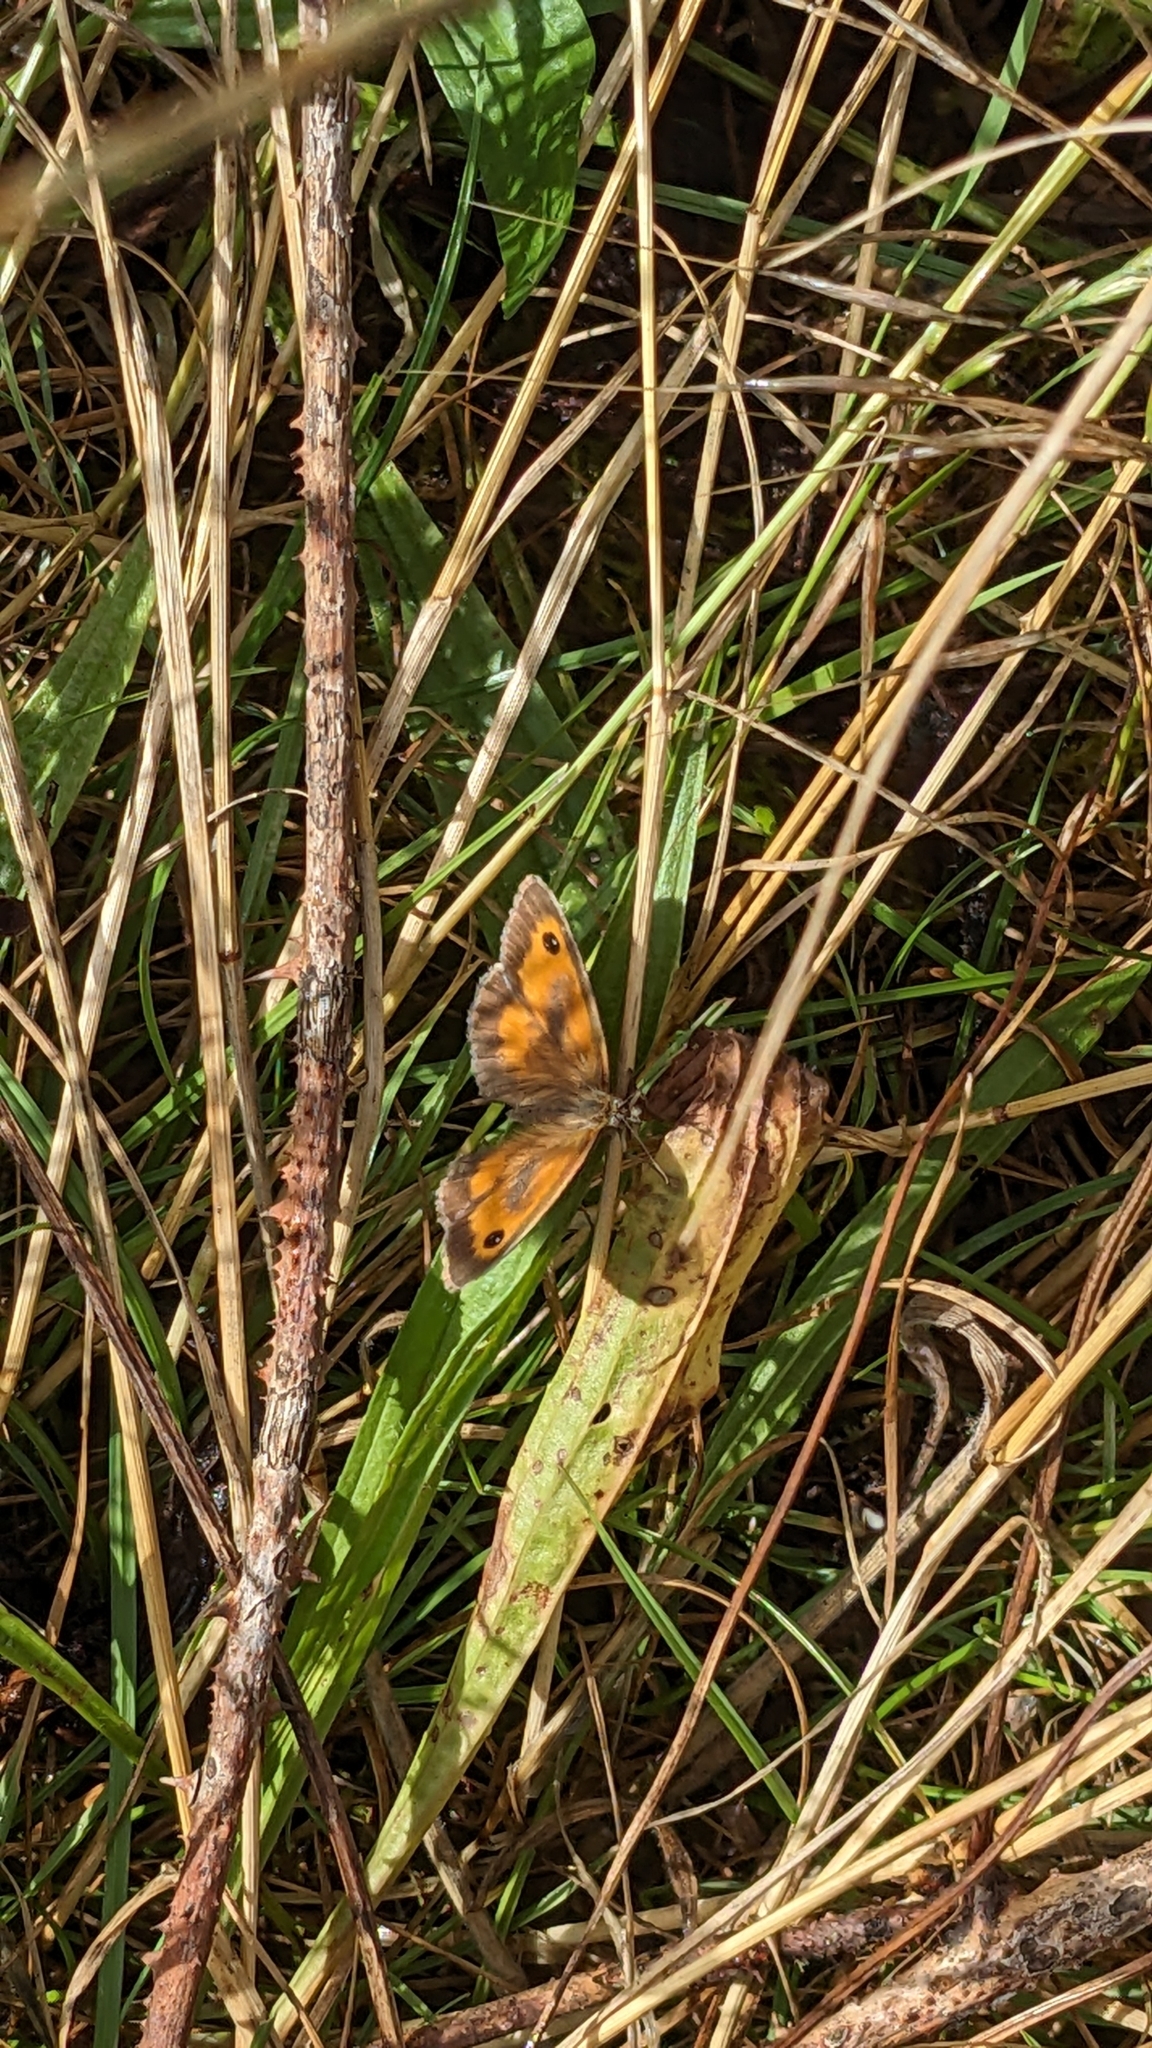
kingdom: Animalia
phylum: Arthropoda
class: Insecta
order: Lepidoptera
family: Nymphalidae
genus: Pyronia
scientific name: Pyronia tithonus
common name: Gatekeeper
